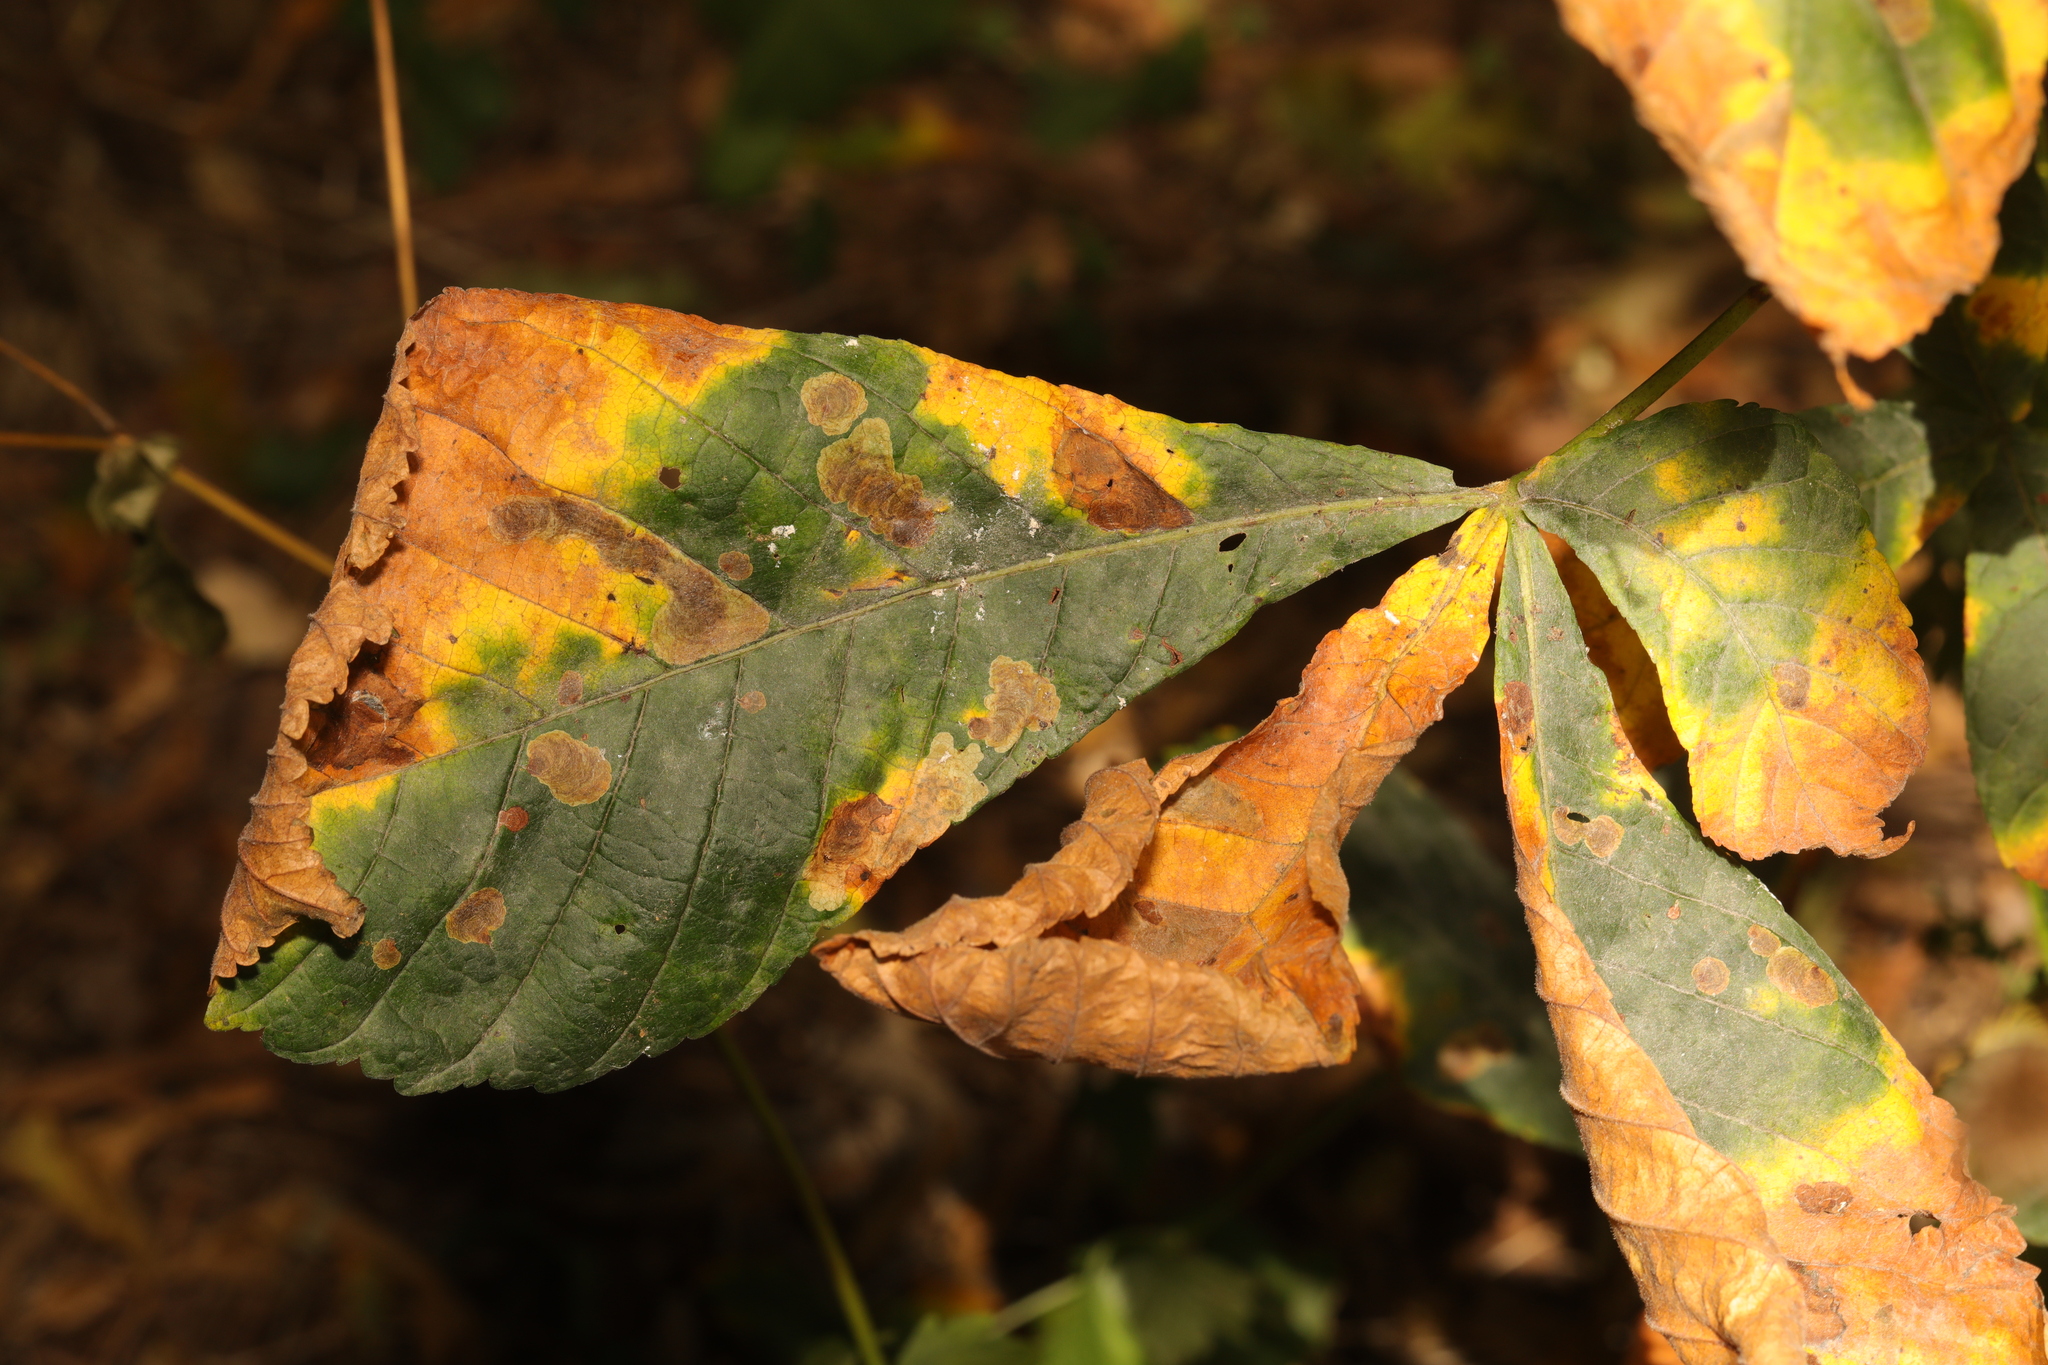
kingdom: Plantae
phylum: Tracheophyta
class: Magnoliopsida
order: Sapindales
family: Sapindaceae
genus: Aesculus
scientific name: Aesculus hippocastanum
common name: Horse-chestnut
